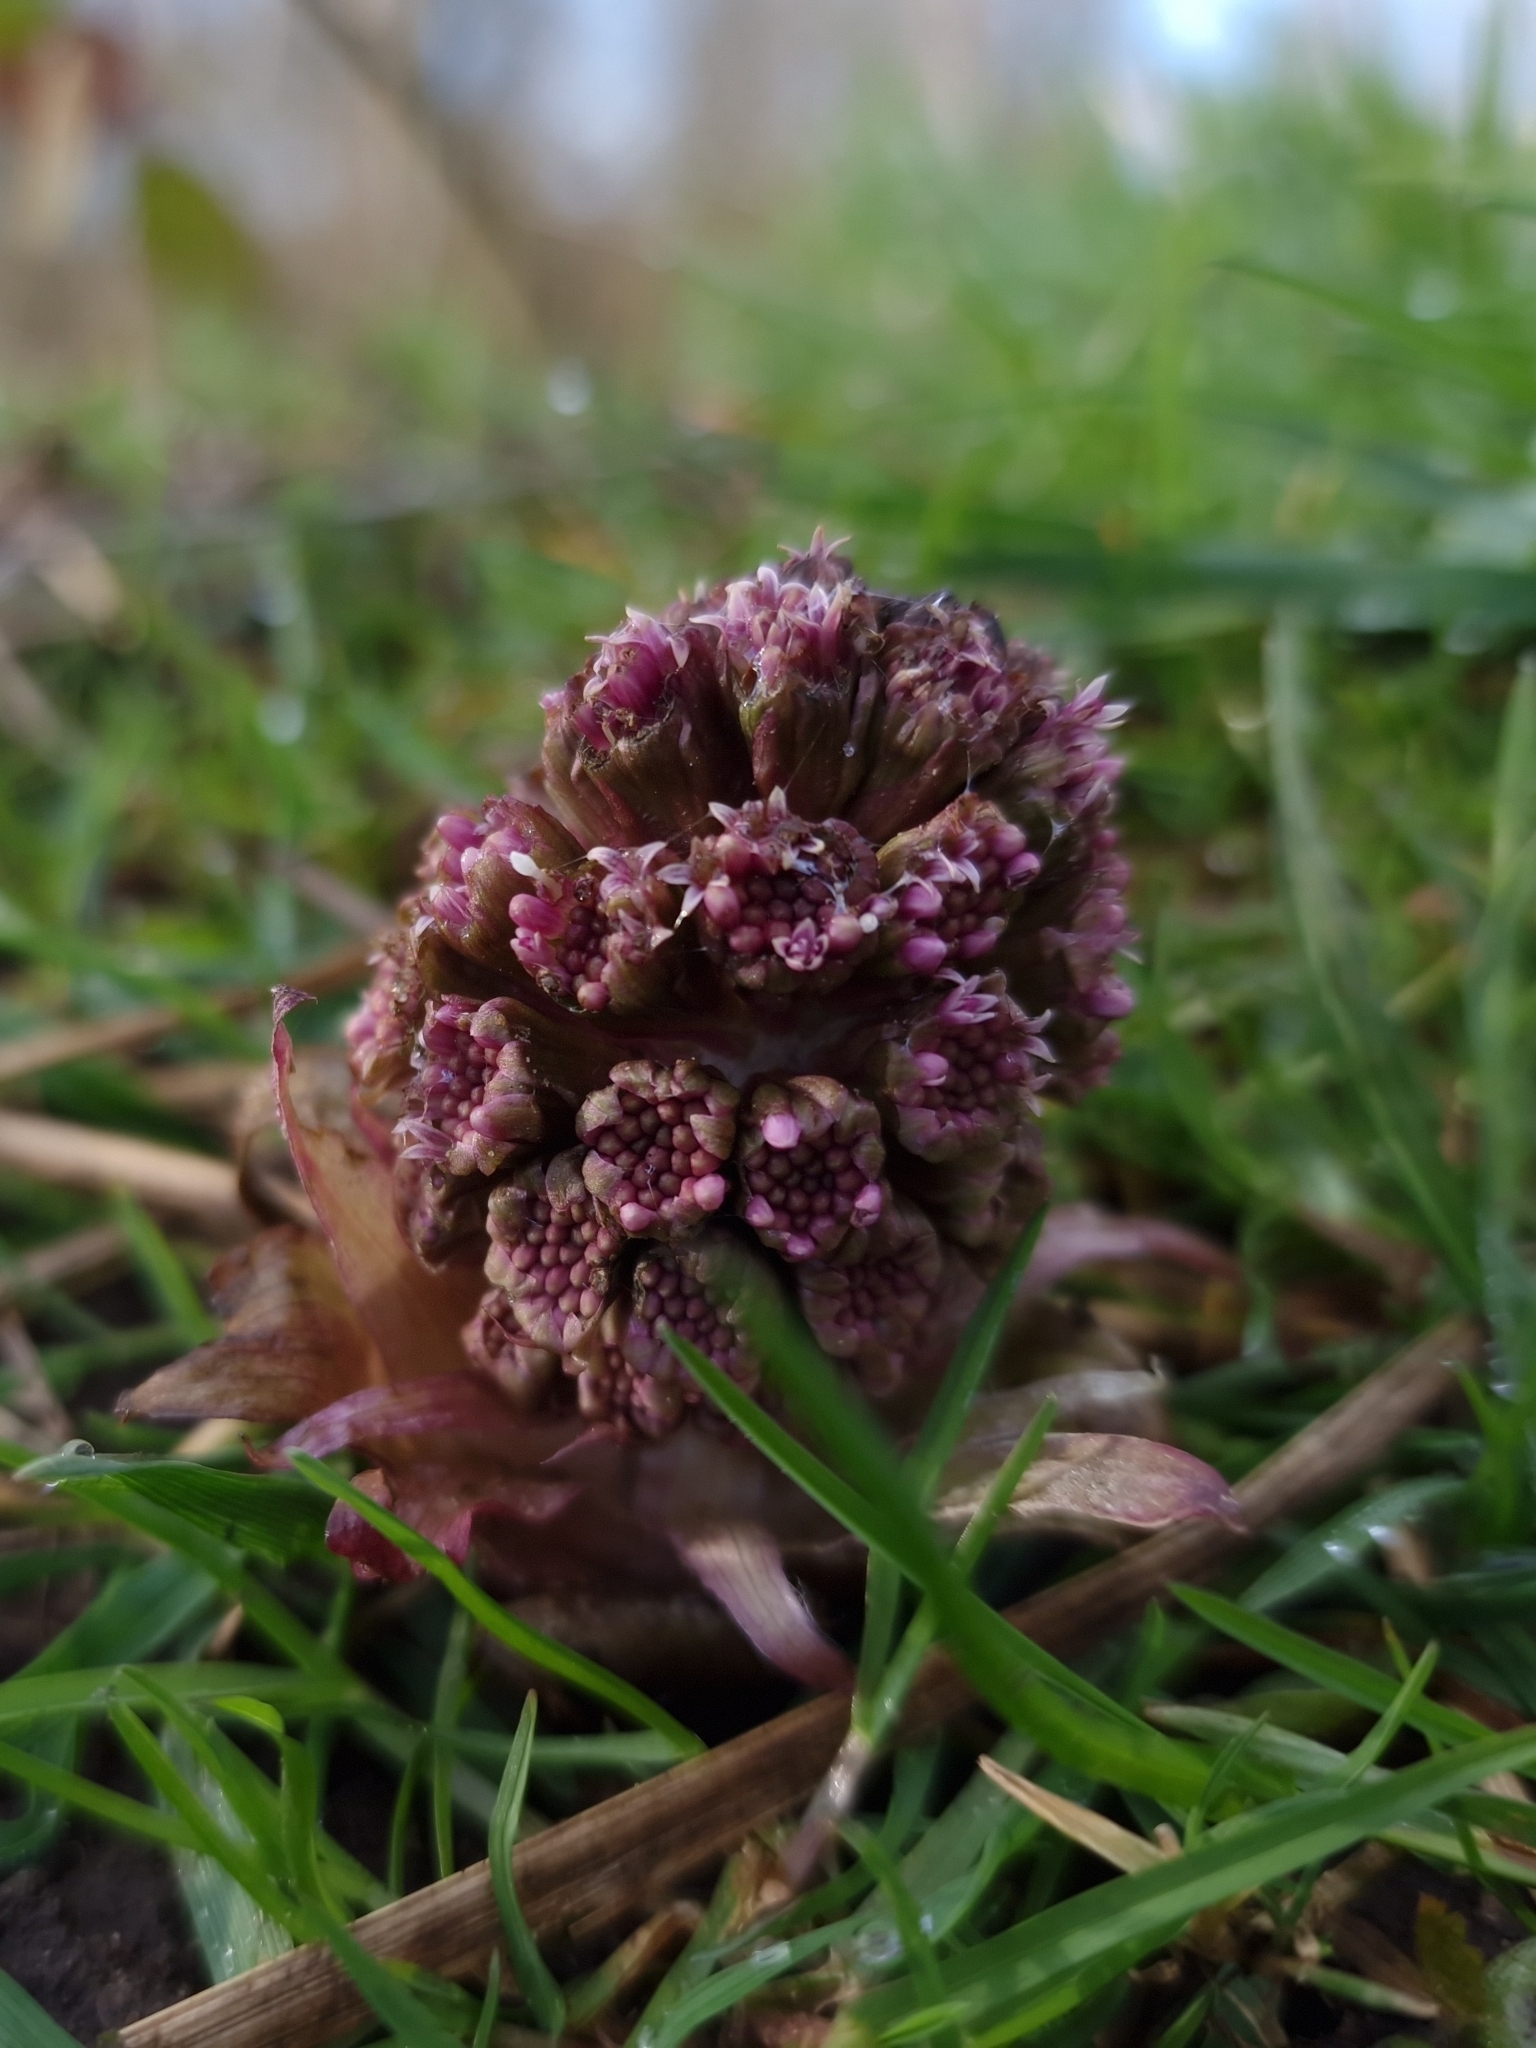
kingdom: Plantae
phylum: Tracheophyta
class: Magnoliopsida
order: Asterales
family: Asteraceae
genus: Petasites
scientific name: Petasites hybridus
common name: Butterbur
